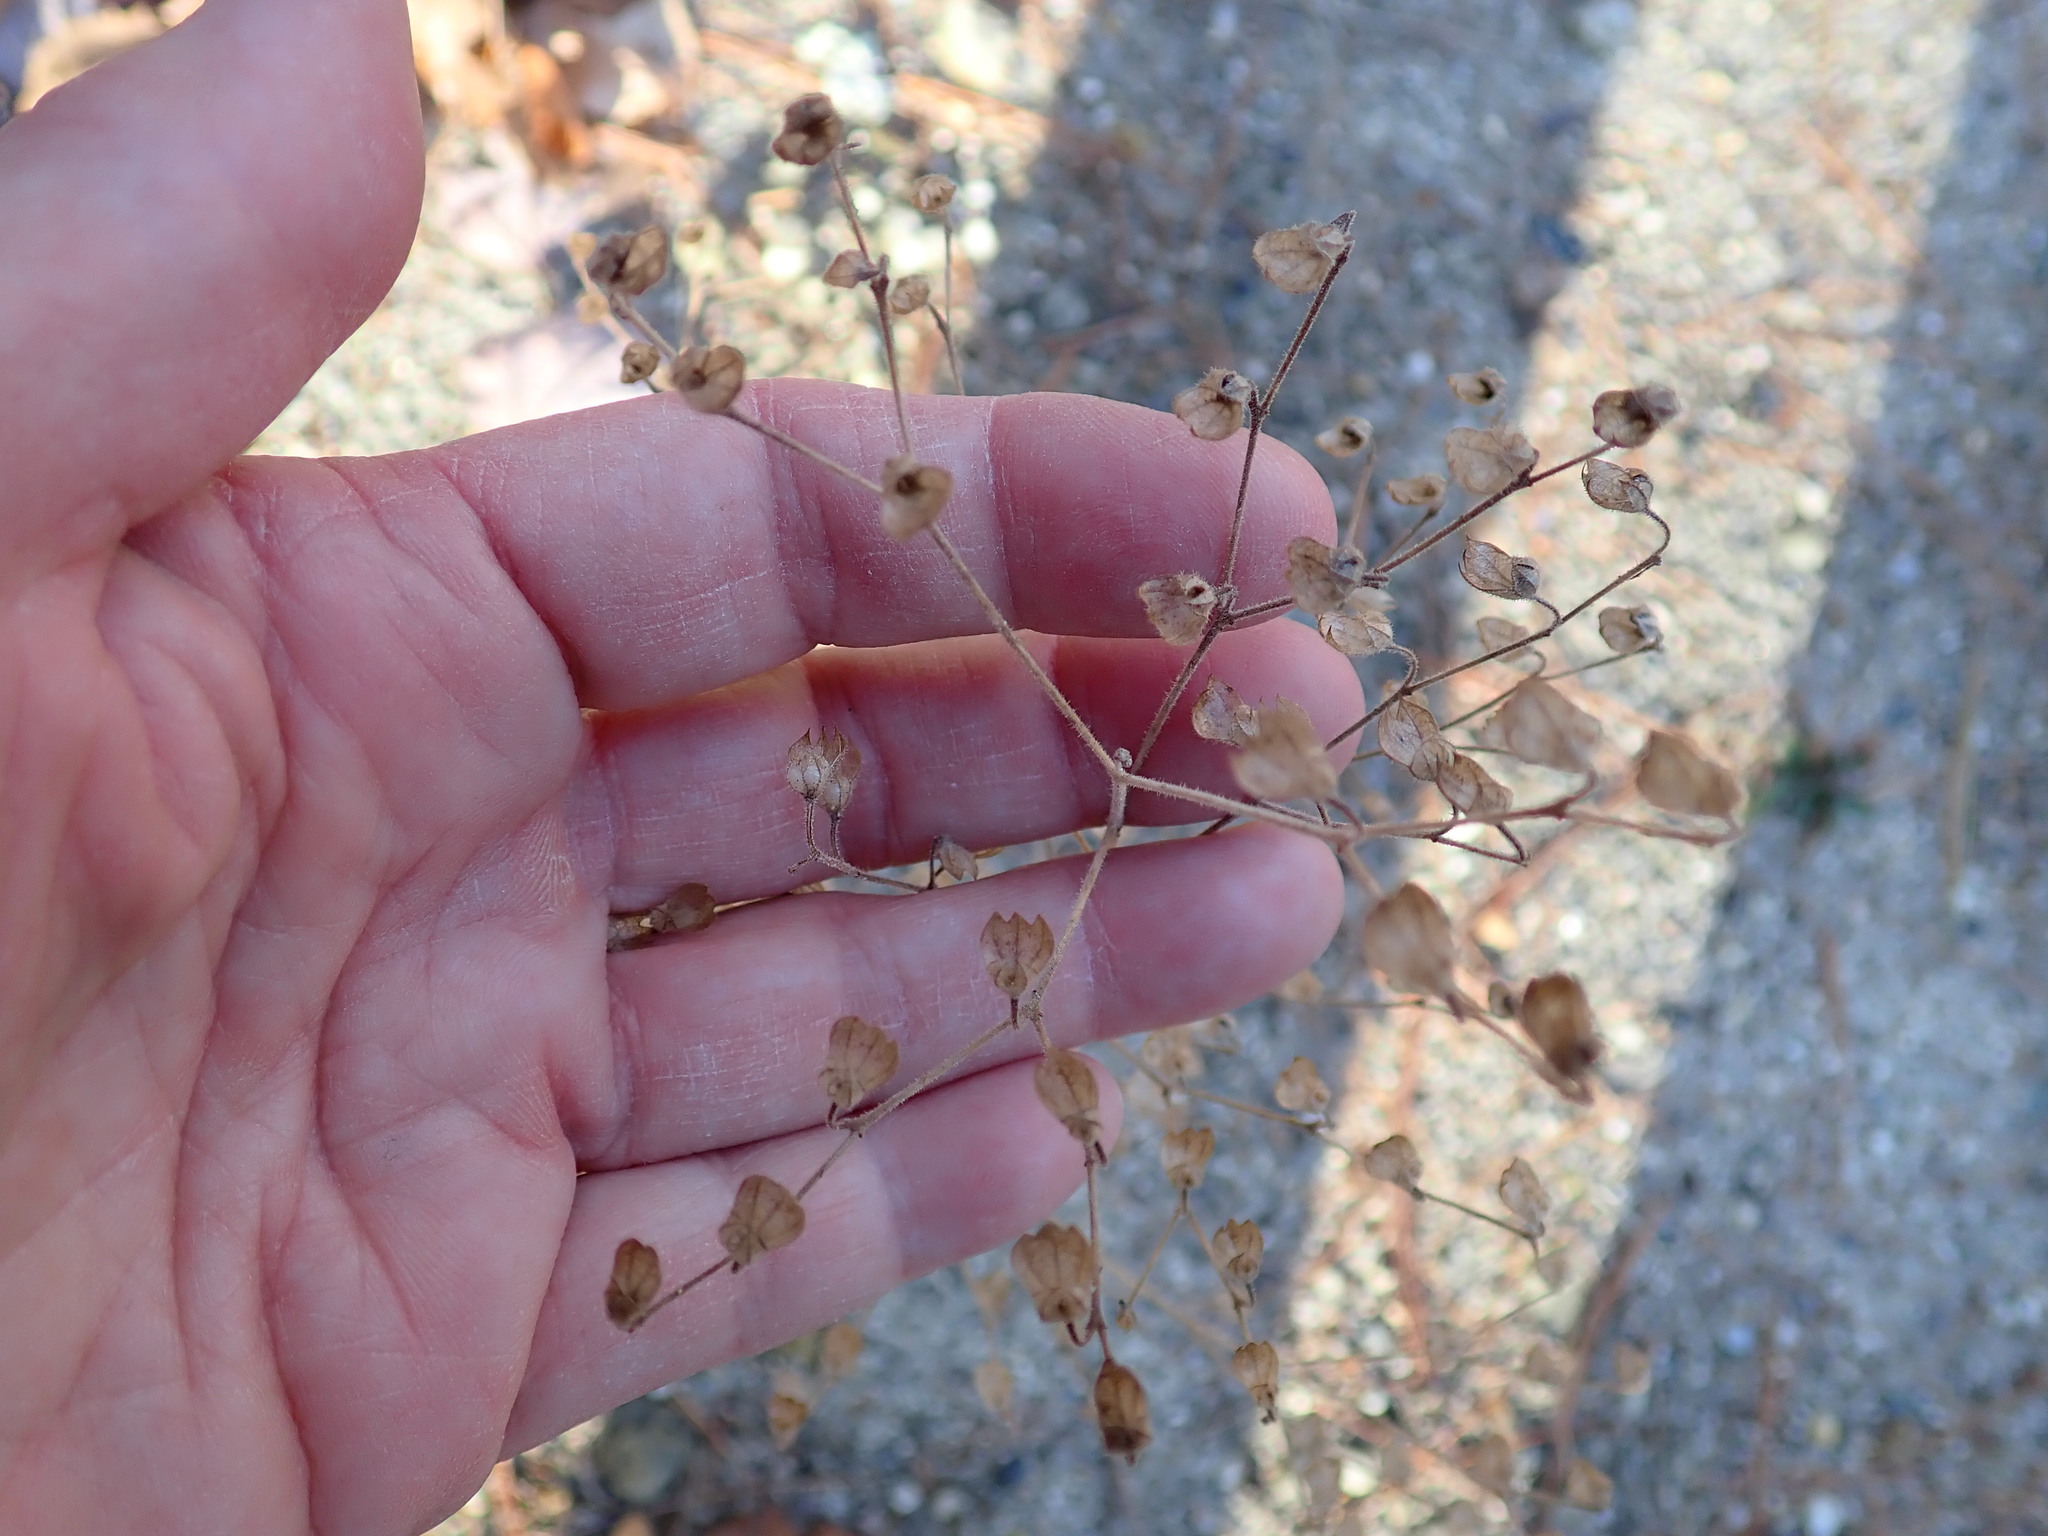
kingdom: Plantae
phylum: Tracheophyta
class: Magnoliopsida
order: Lamiales
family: Lamiaceae
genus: Trichostema
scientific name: Trichostema dichotomum
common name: Bastard pennyroyal
